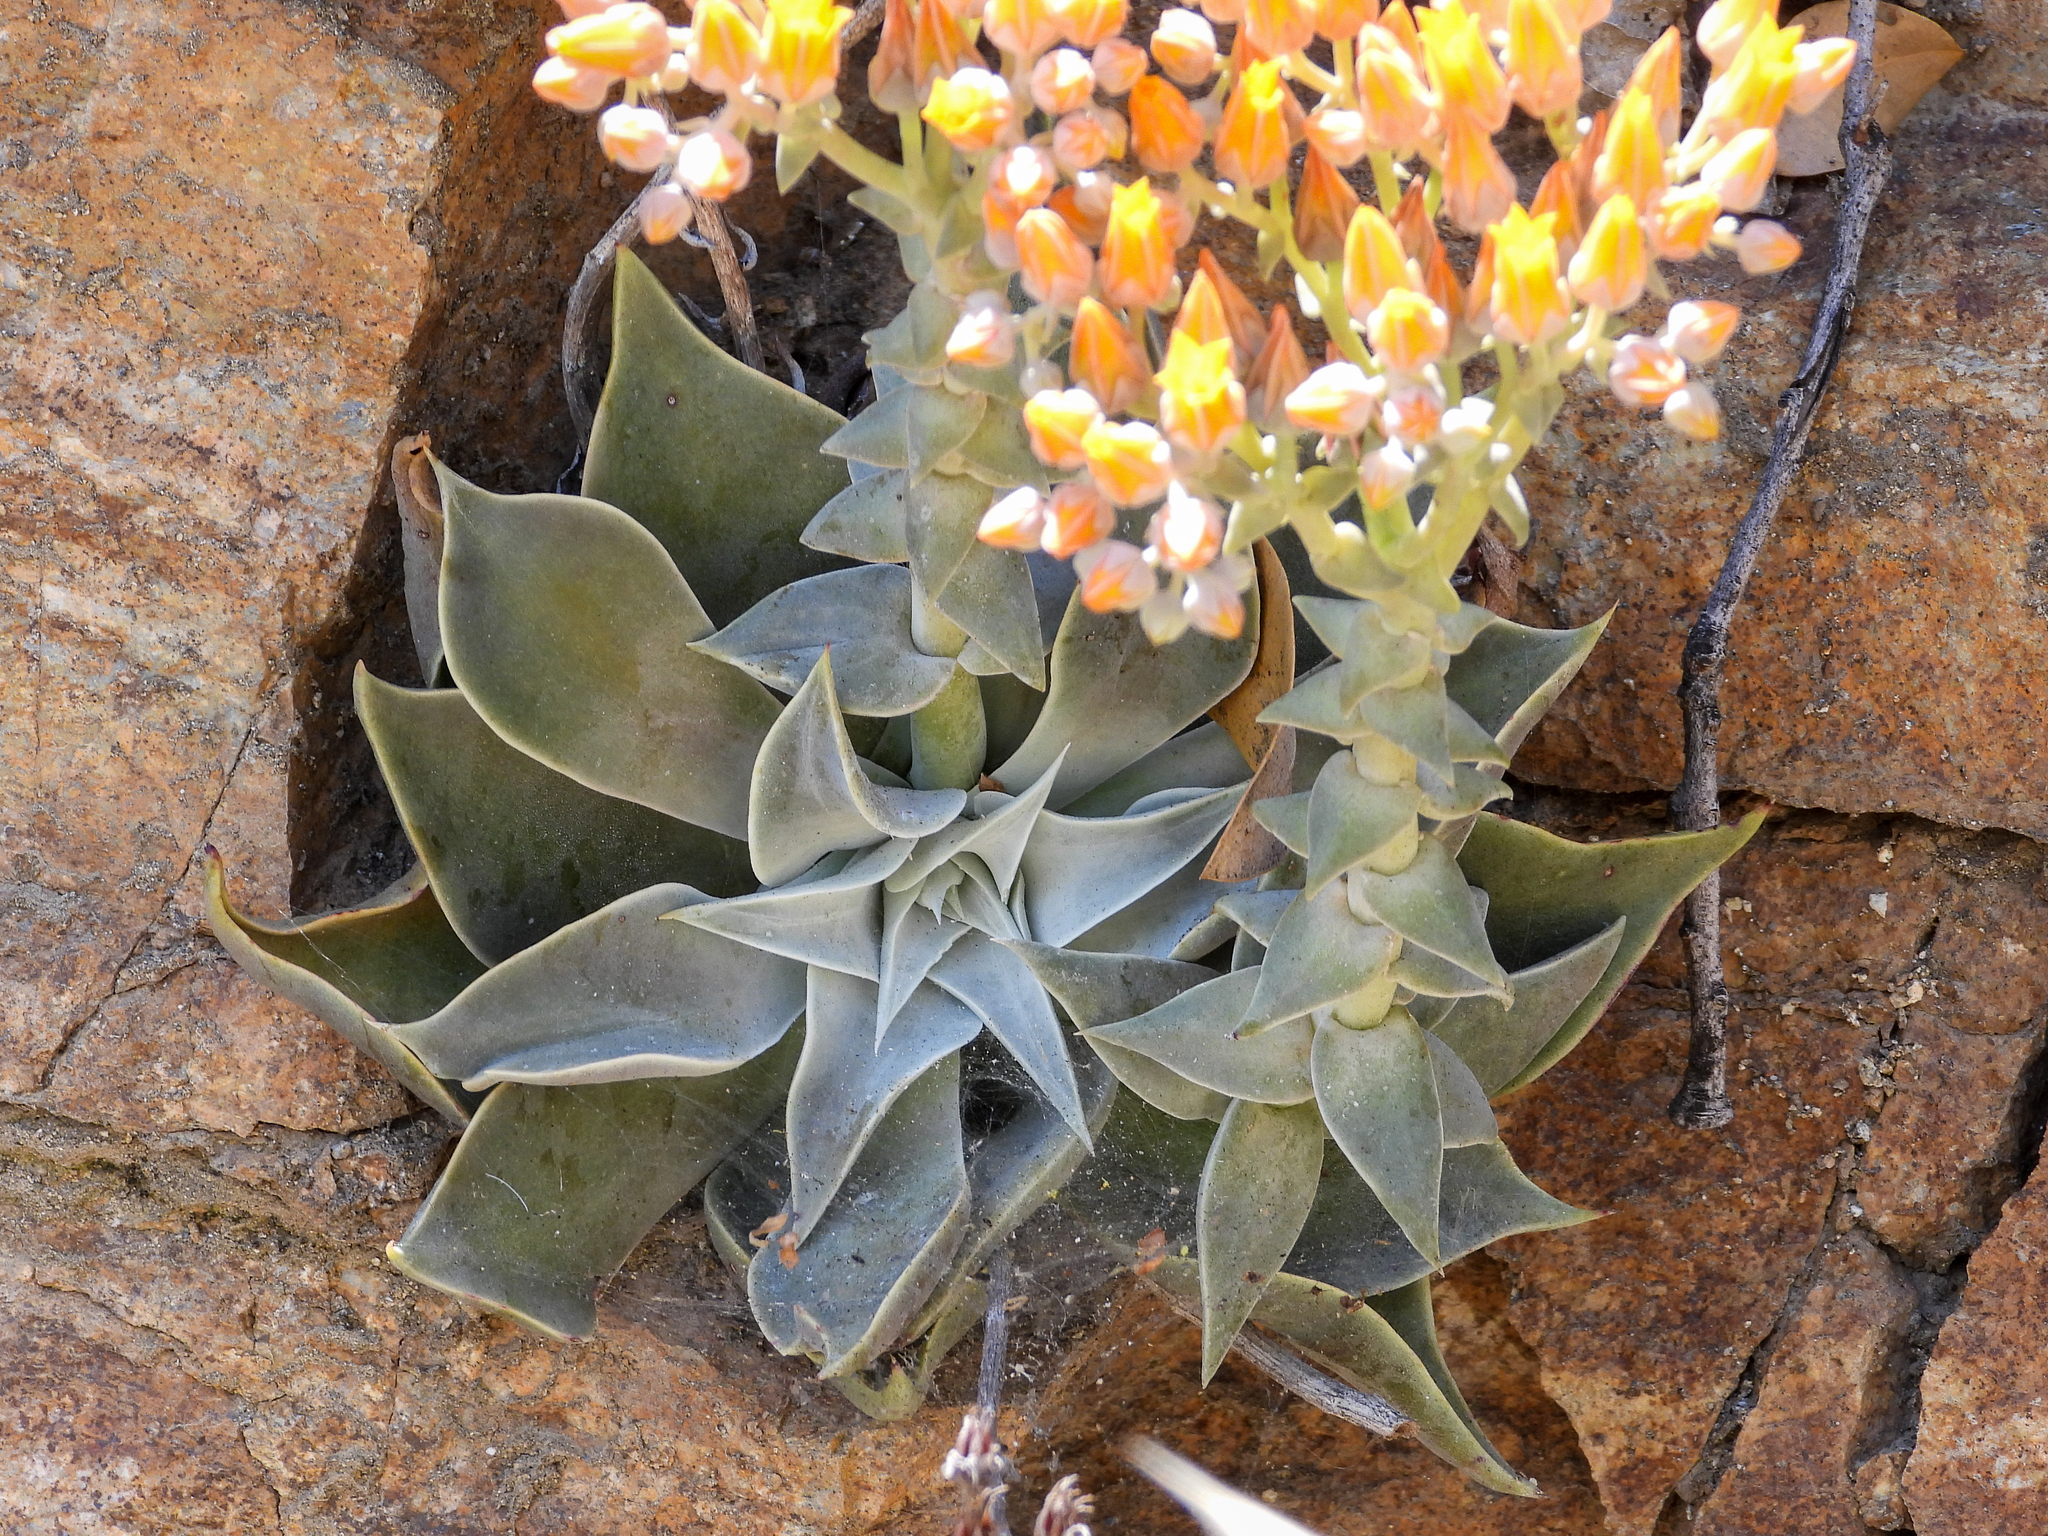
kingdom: Plantae
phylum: Tracheophyta
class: Magnoliopsida
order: Saxifragales
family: Crassulaceae
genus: Dudleya
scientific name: Dudleya cymosa
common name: Canyon dudleya
